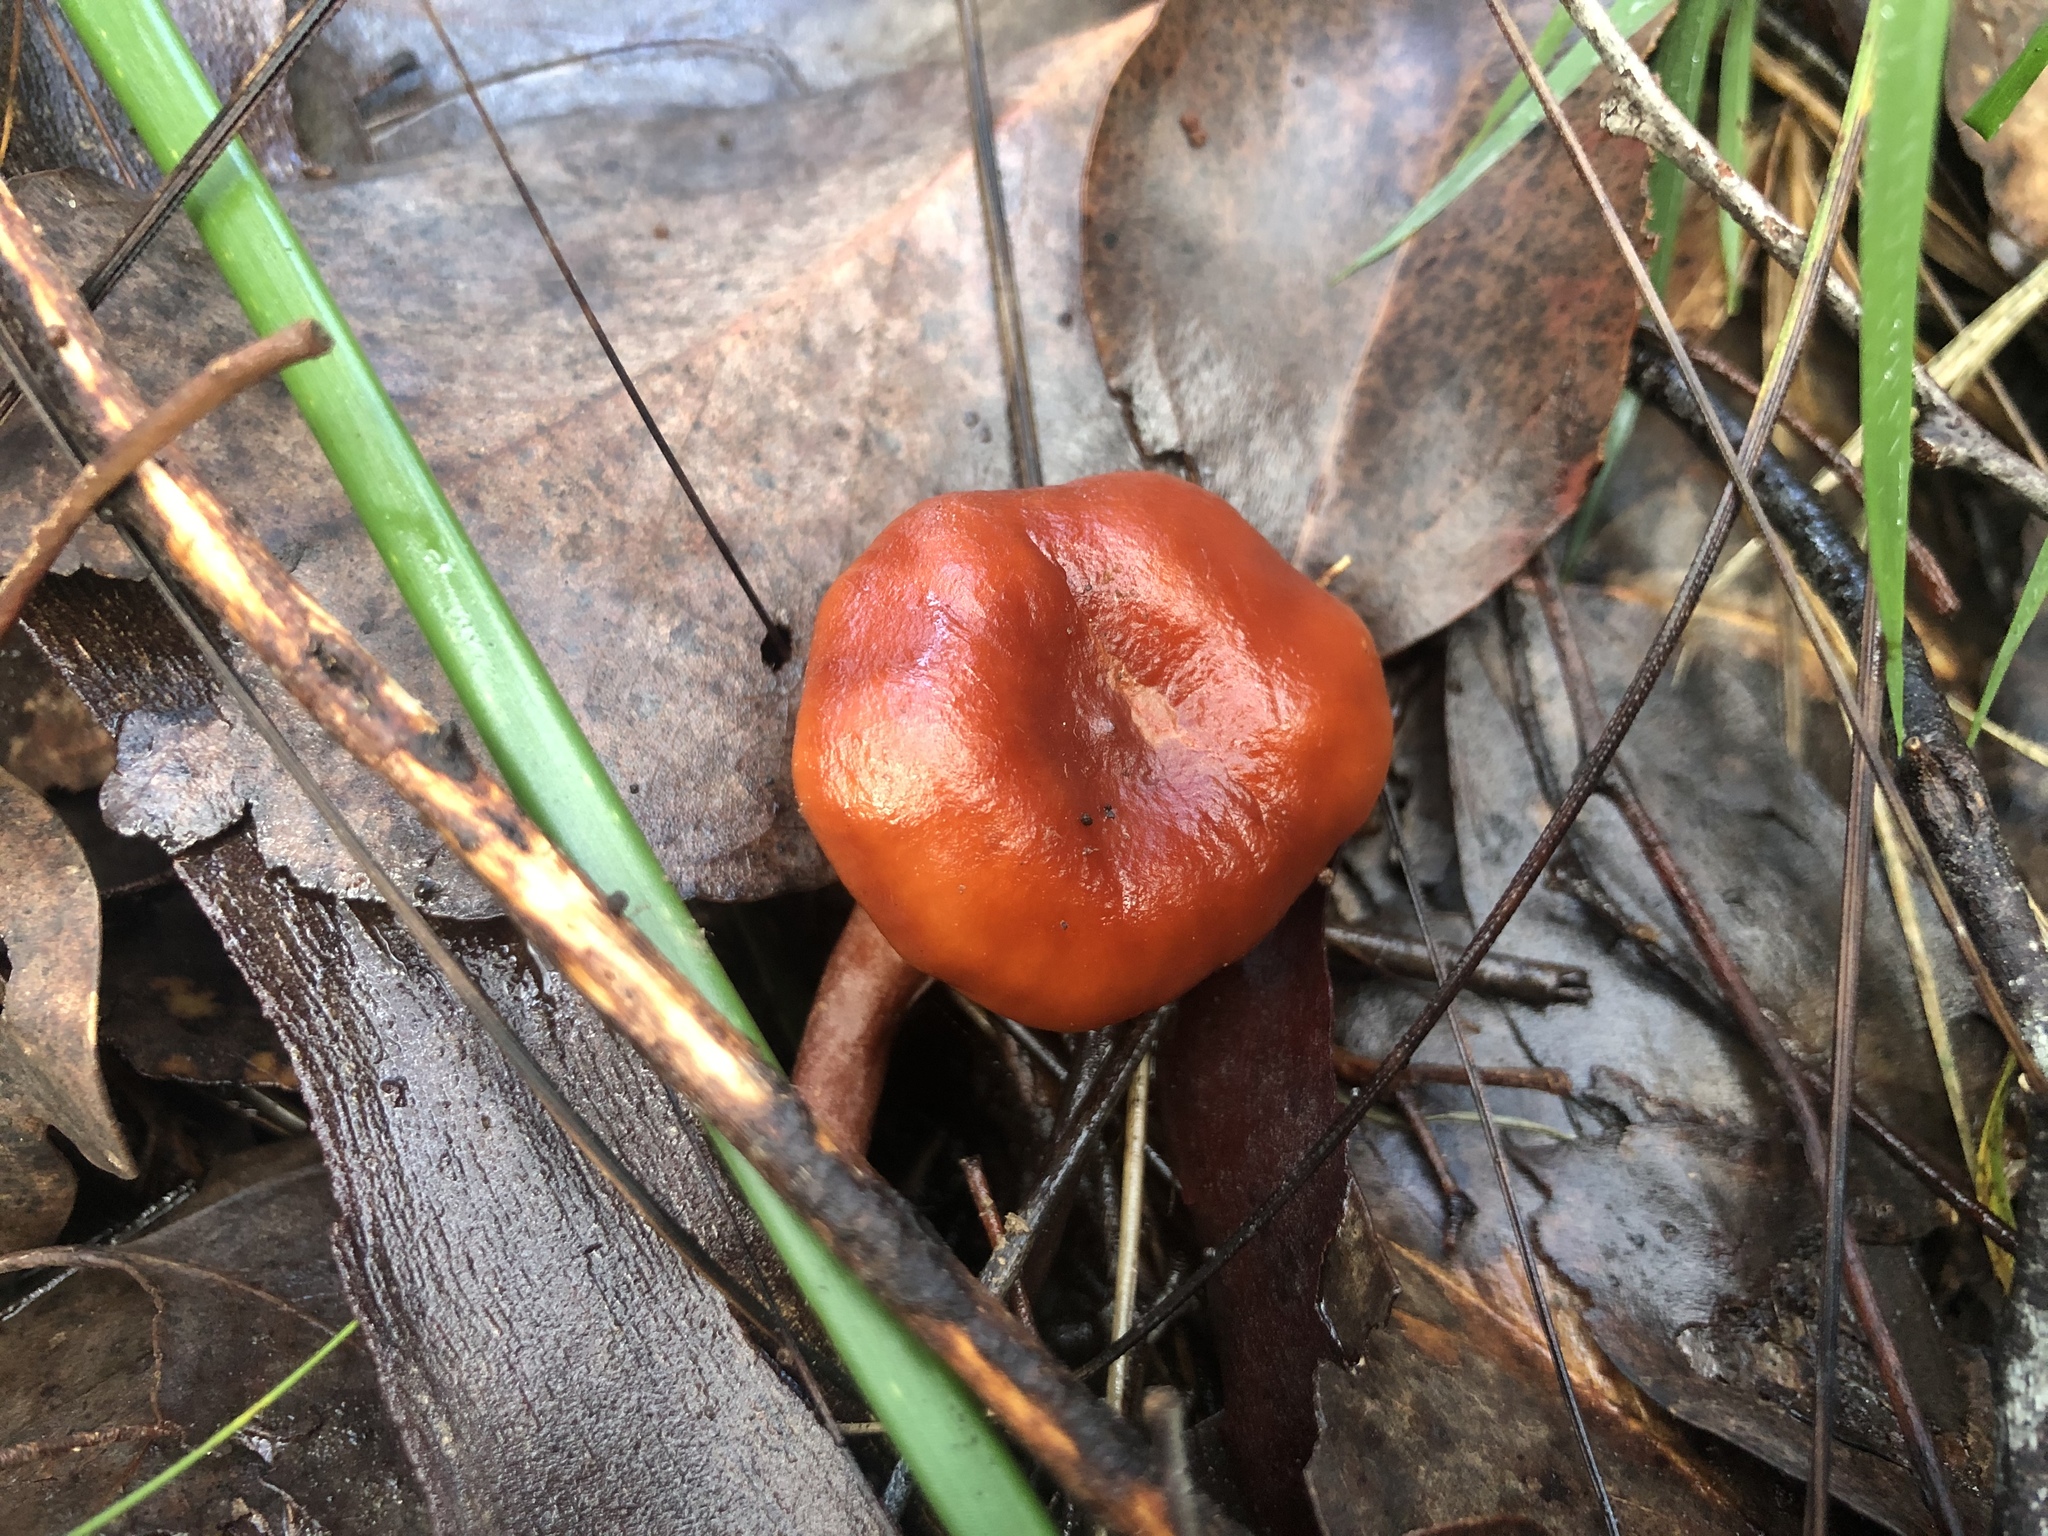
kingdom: Fungi
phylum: Basidiomycota
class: Agaricomycetes
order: Russulales
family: Russulaceae
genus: Lactarius
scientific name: Lactarius eucalypti
